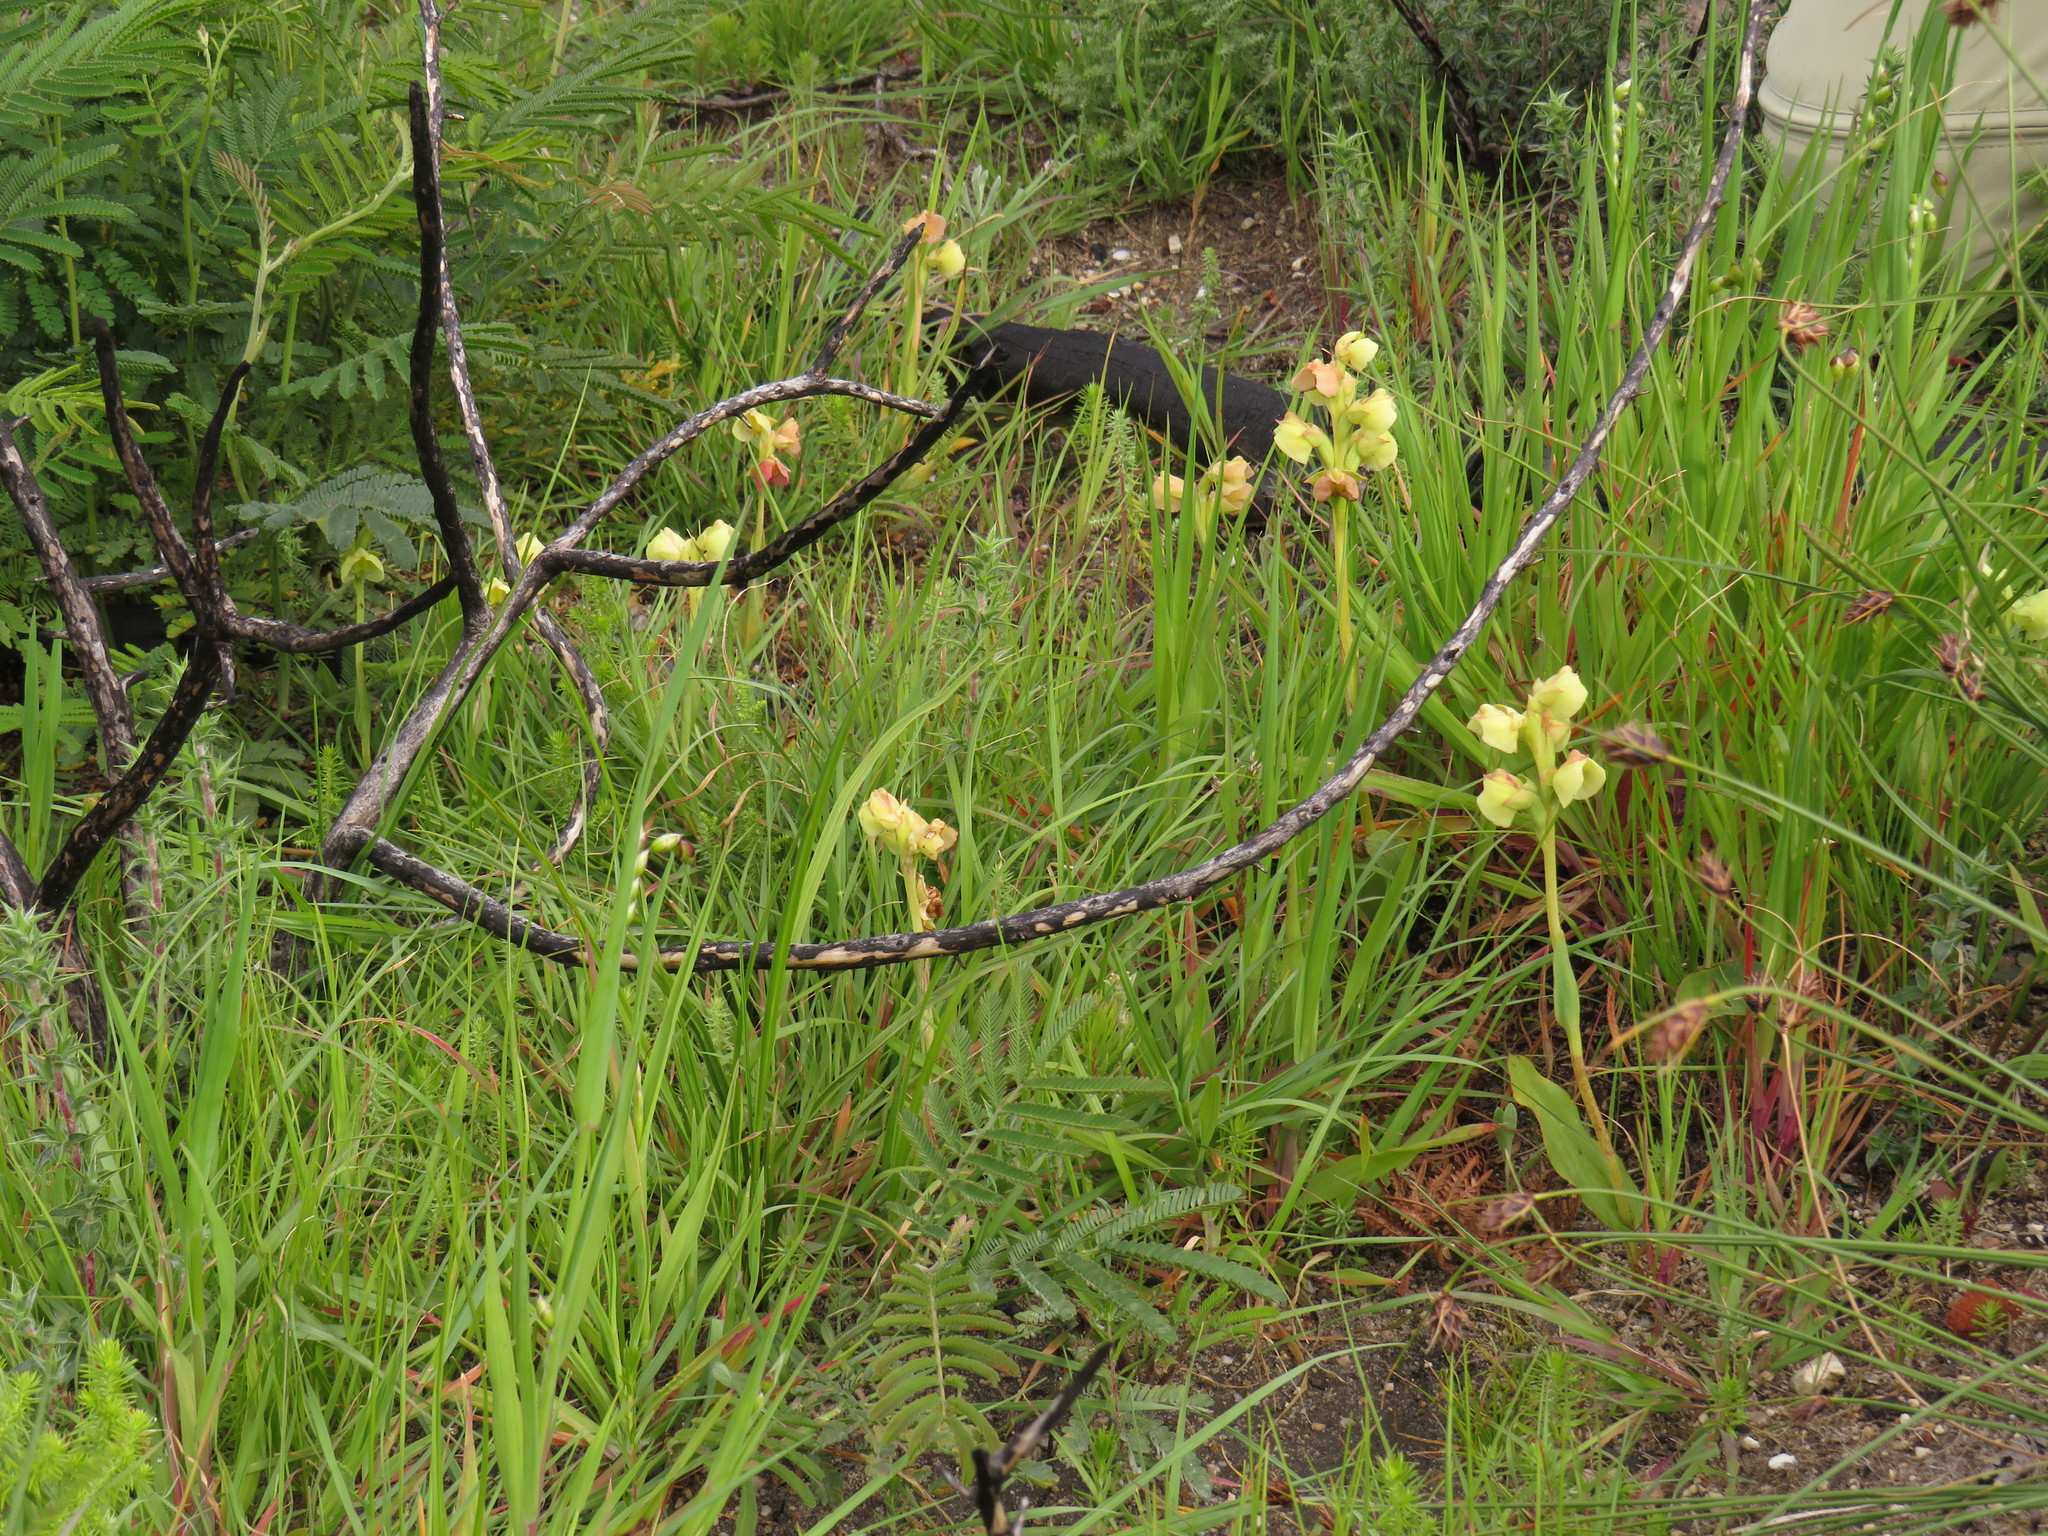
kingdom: Plantae
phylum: Tracheophyta
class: Liliopsida
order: Asparagales
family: Orchidaceae
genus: Pterygodium
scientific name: Pterygodium catholicum
